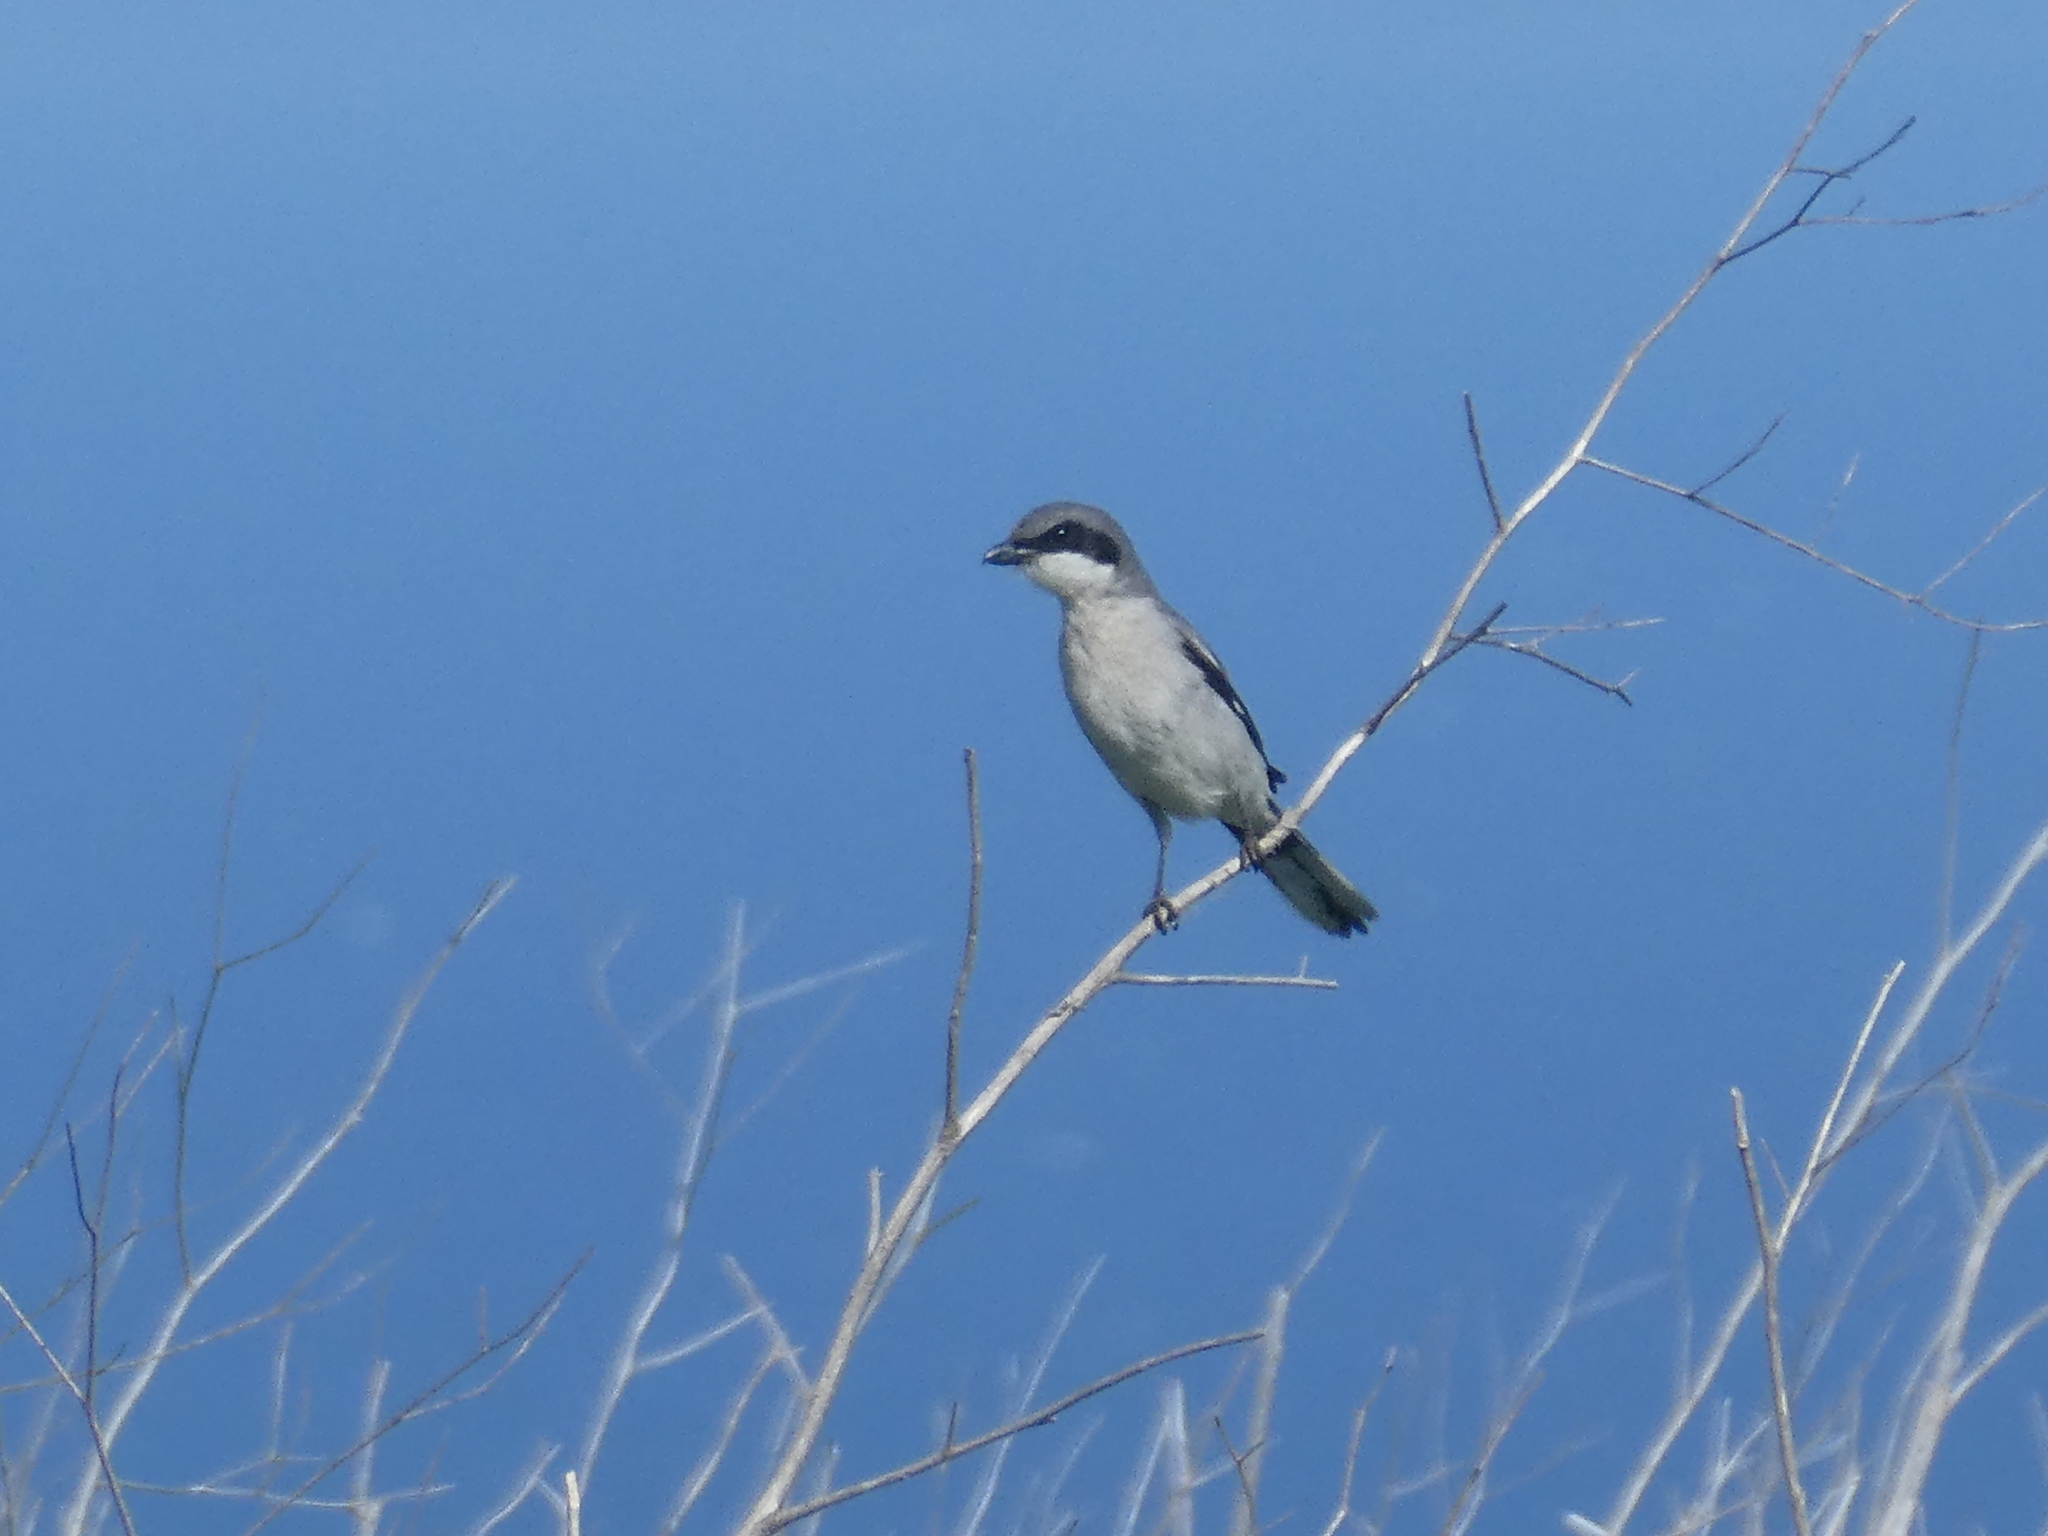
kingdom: Animalia
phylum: Chordata
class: Aves
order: Passeriformes
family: Laniidae
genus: Lanius
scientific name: Lanius ludovicianus
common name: Loggerhead shrike
